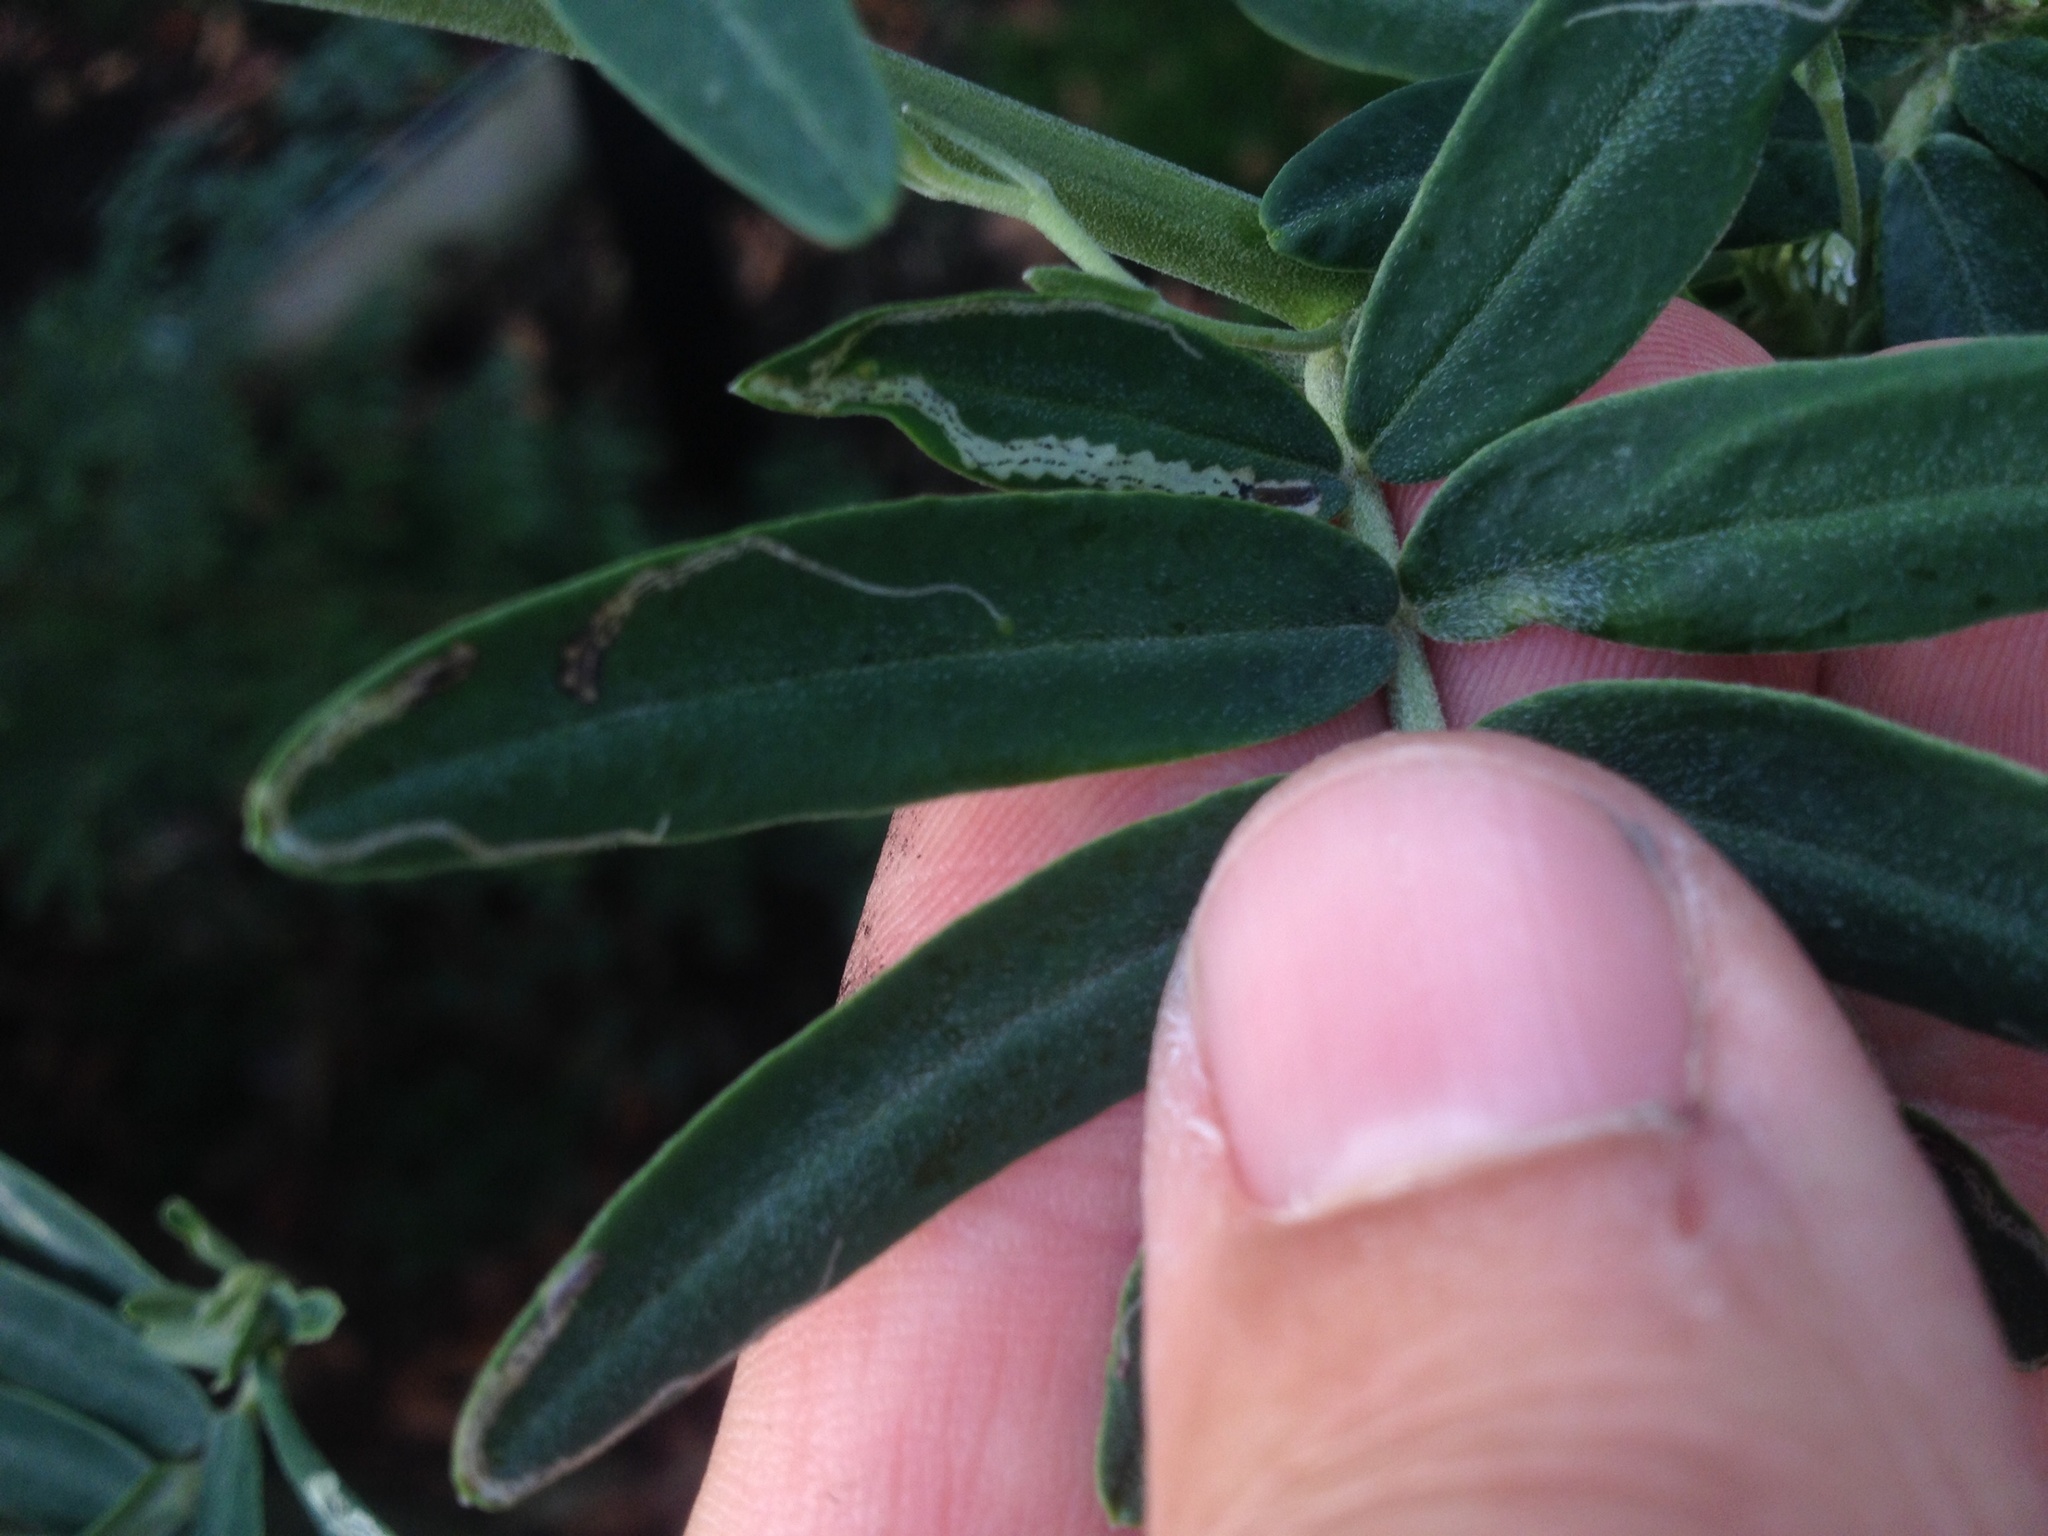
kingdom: Animalia
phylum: Arthropoda
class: Insecta
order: Diptera
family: Agromyzidae
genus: Liriomyza
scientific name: Liriomyza clianthi
